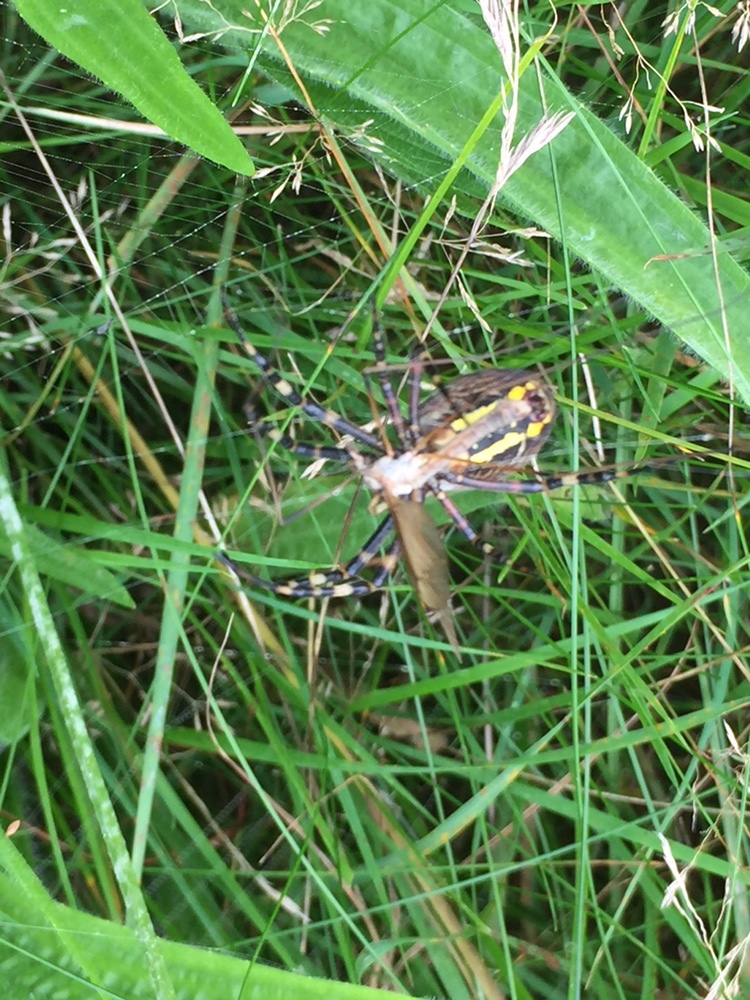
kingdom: Animalia
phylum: Arthropoda
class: Arachnida
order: Araneae
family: Araneidae
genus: Argiope
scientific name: Argiope bruennichi
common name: Wasp spider
